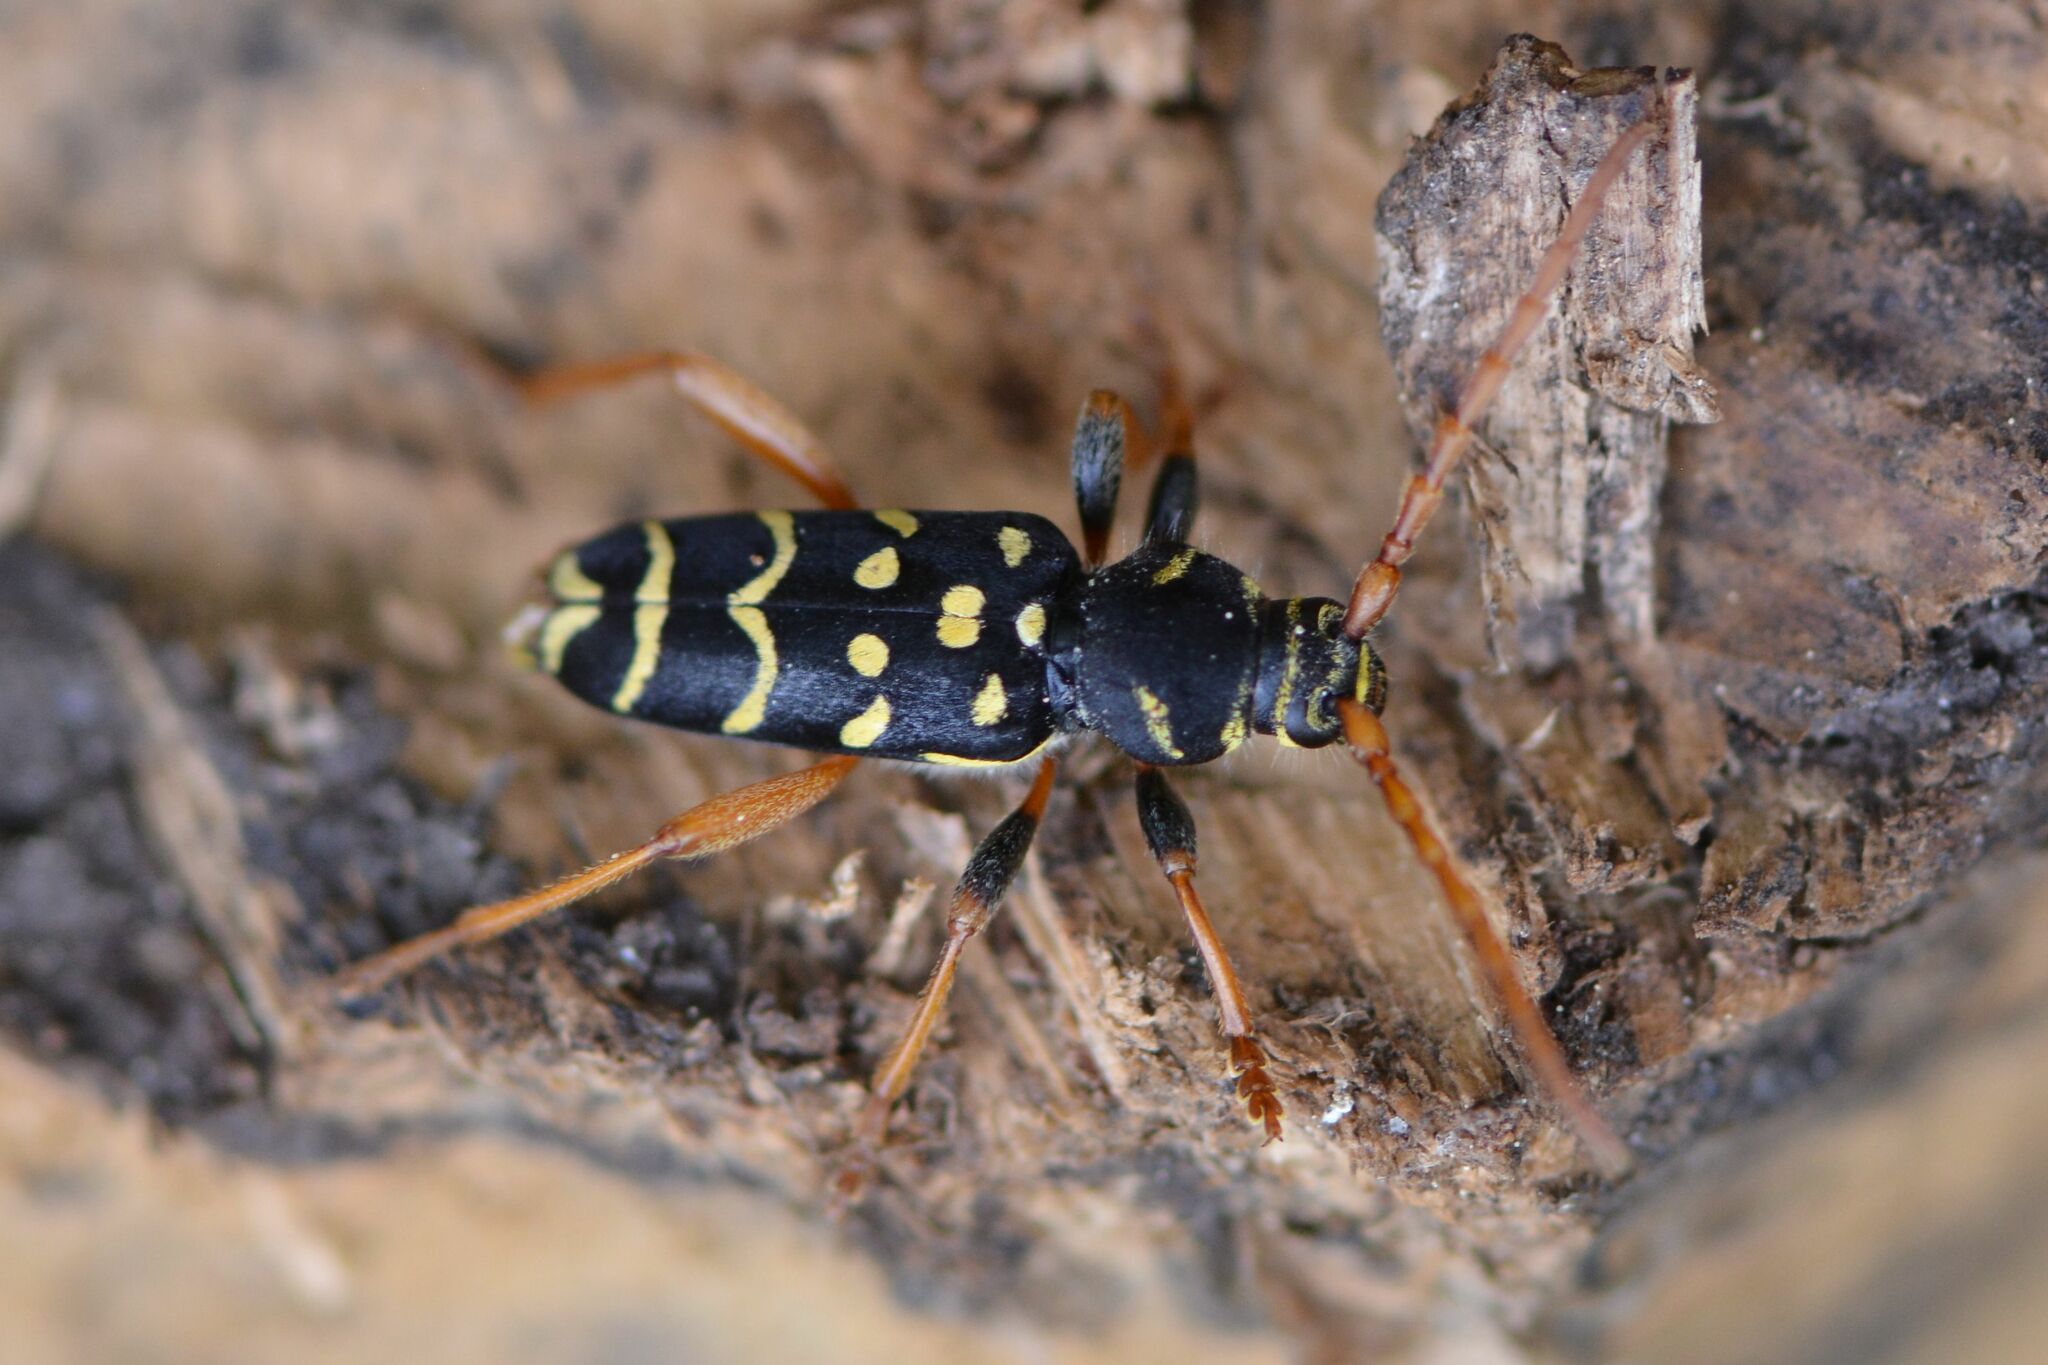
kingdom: Animalia
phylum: Arthropoda
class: Insecta
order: Coleoptera
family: Cerambycidae
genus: Plagionotus
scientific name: Plagionotus arcuatus
